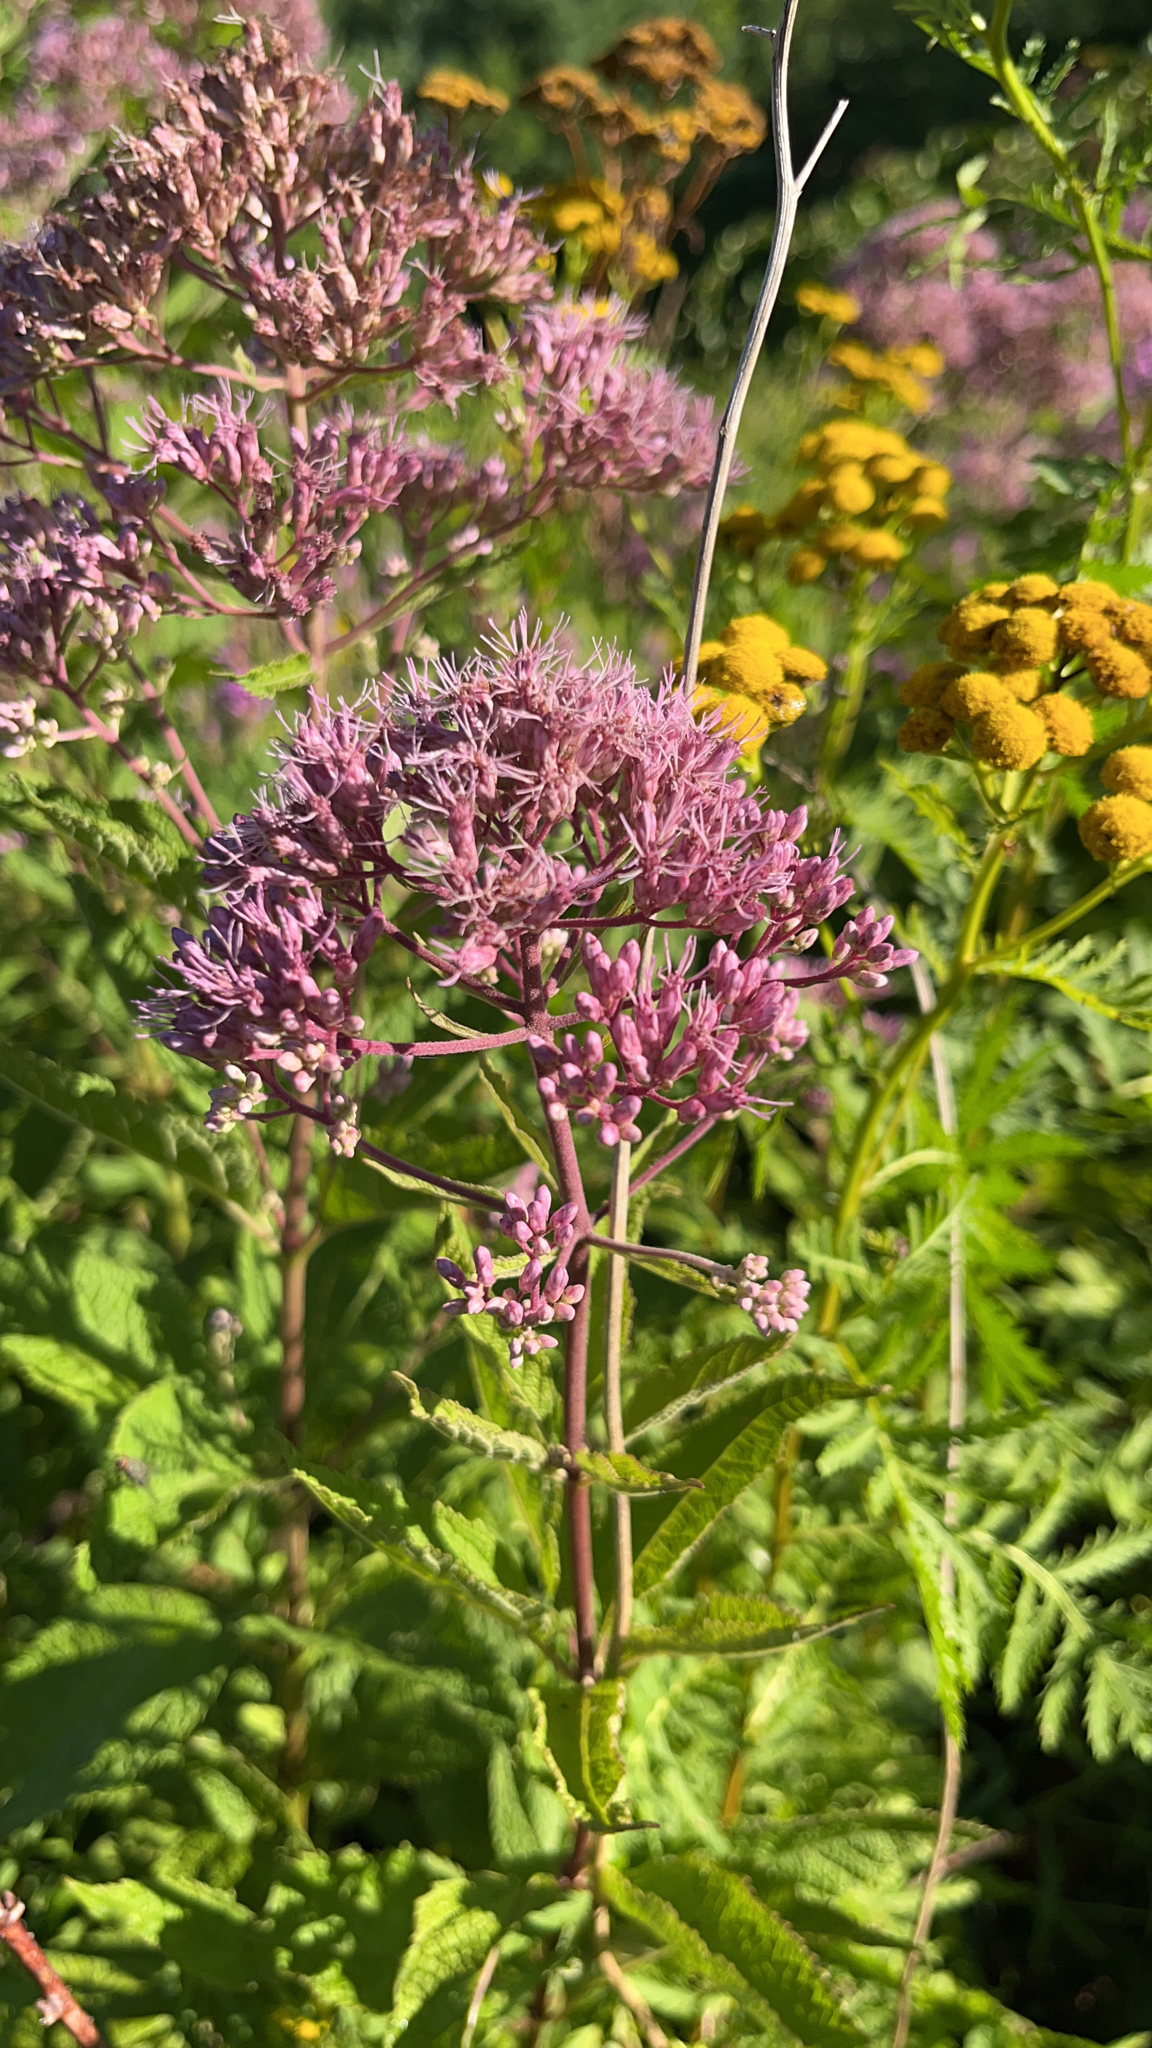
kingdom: Plantae
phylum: Tracheophyta
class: Magnoliopsida
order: Asterales
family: Asteraceae
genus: Eutrochium
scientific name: Eutrochium dubium
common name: Coastal plain joe pye weed
